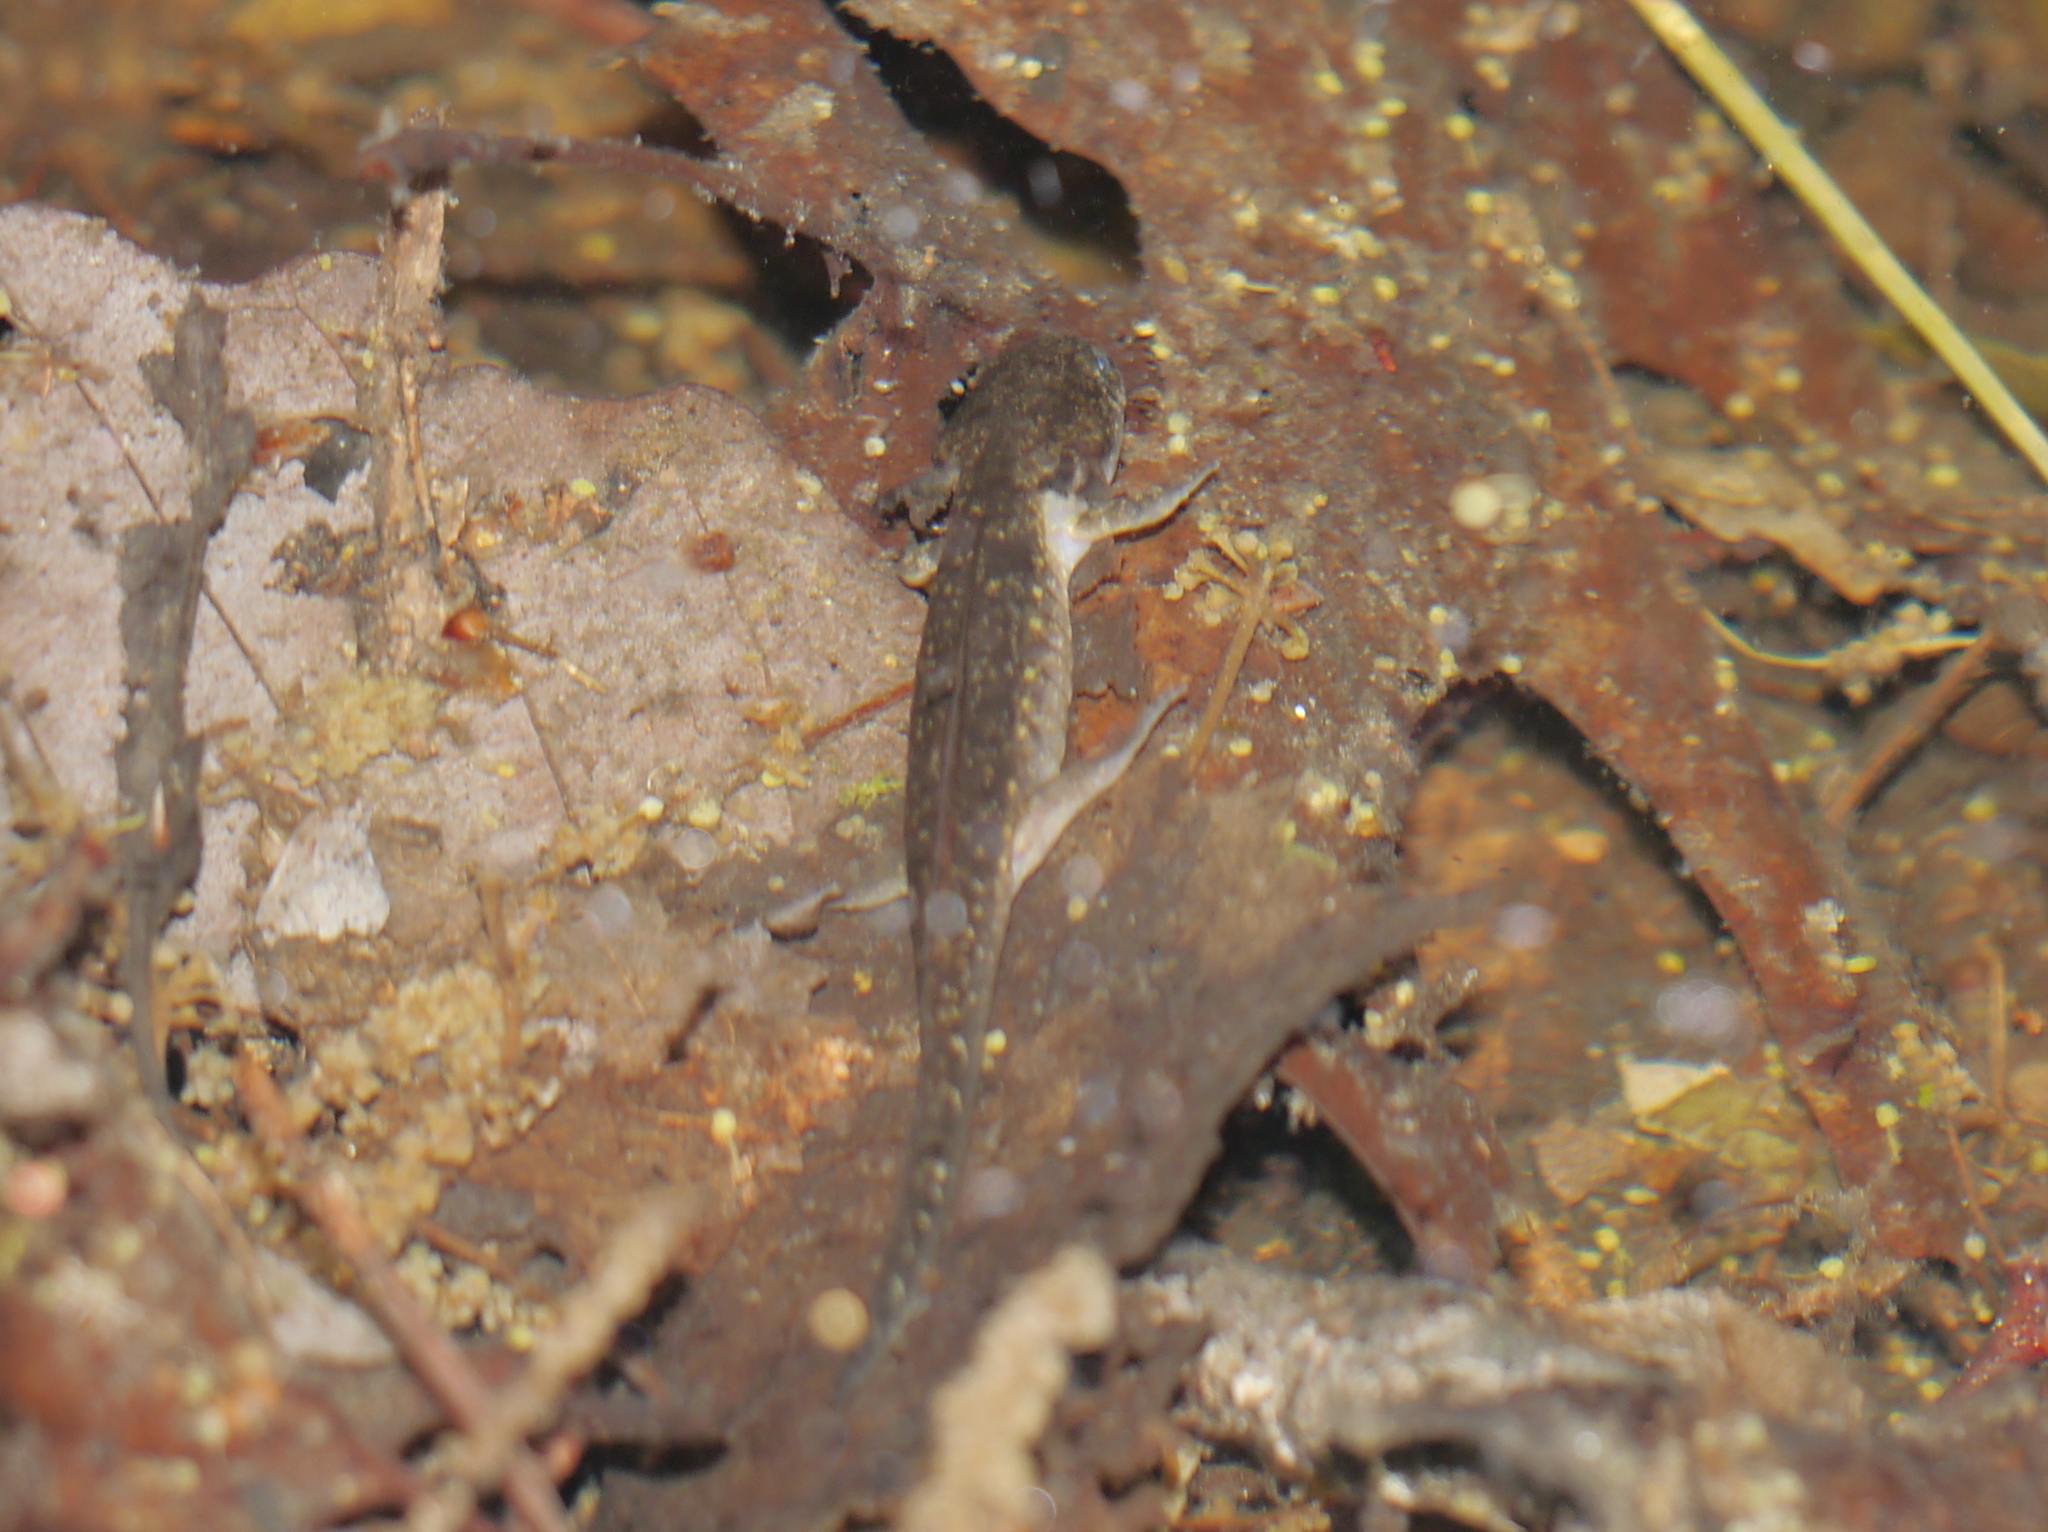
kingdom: Animalia
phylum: Chordata
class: Amphibia
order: Caudata
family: Ambystomatidae
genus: Ambystoma
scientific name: Ambystoma maculatum
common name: Spotted salamander
